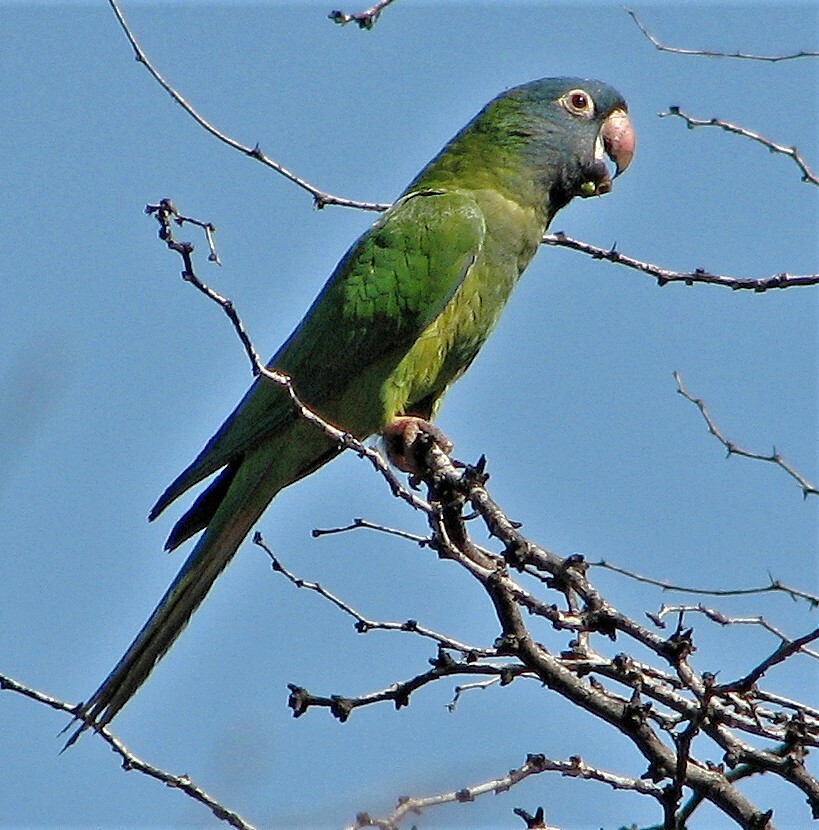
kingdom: Animalia
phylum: Chordata
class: Aves
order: Psittaciformes
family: Psittacidae
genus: Aratinga
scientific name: Aratinga acuticaudata
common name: Blue-crowned parakeet
